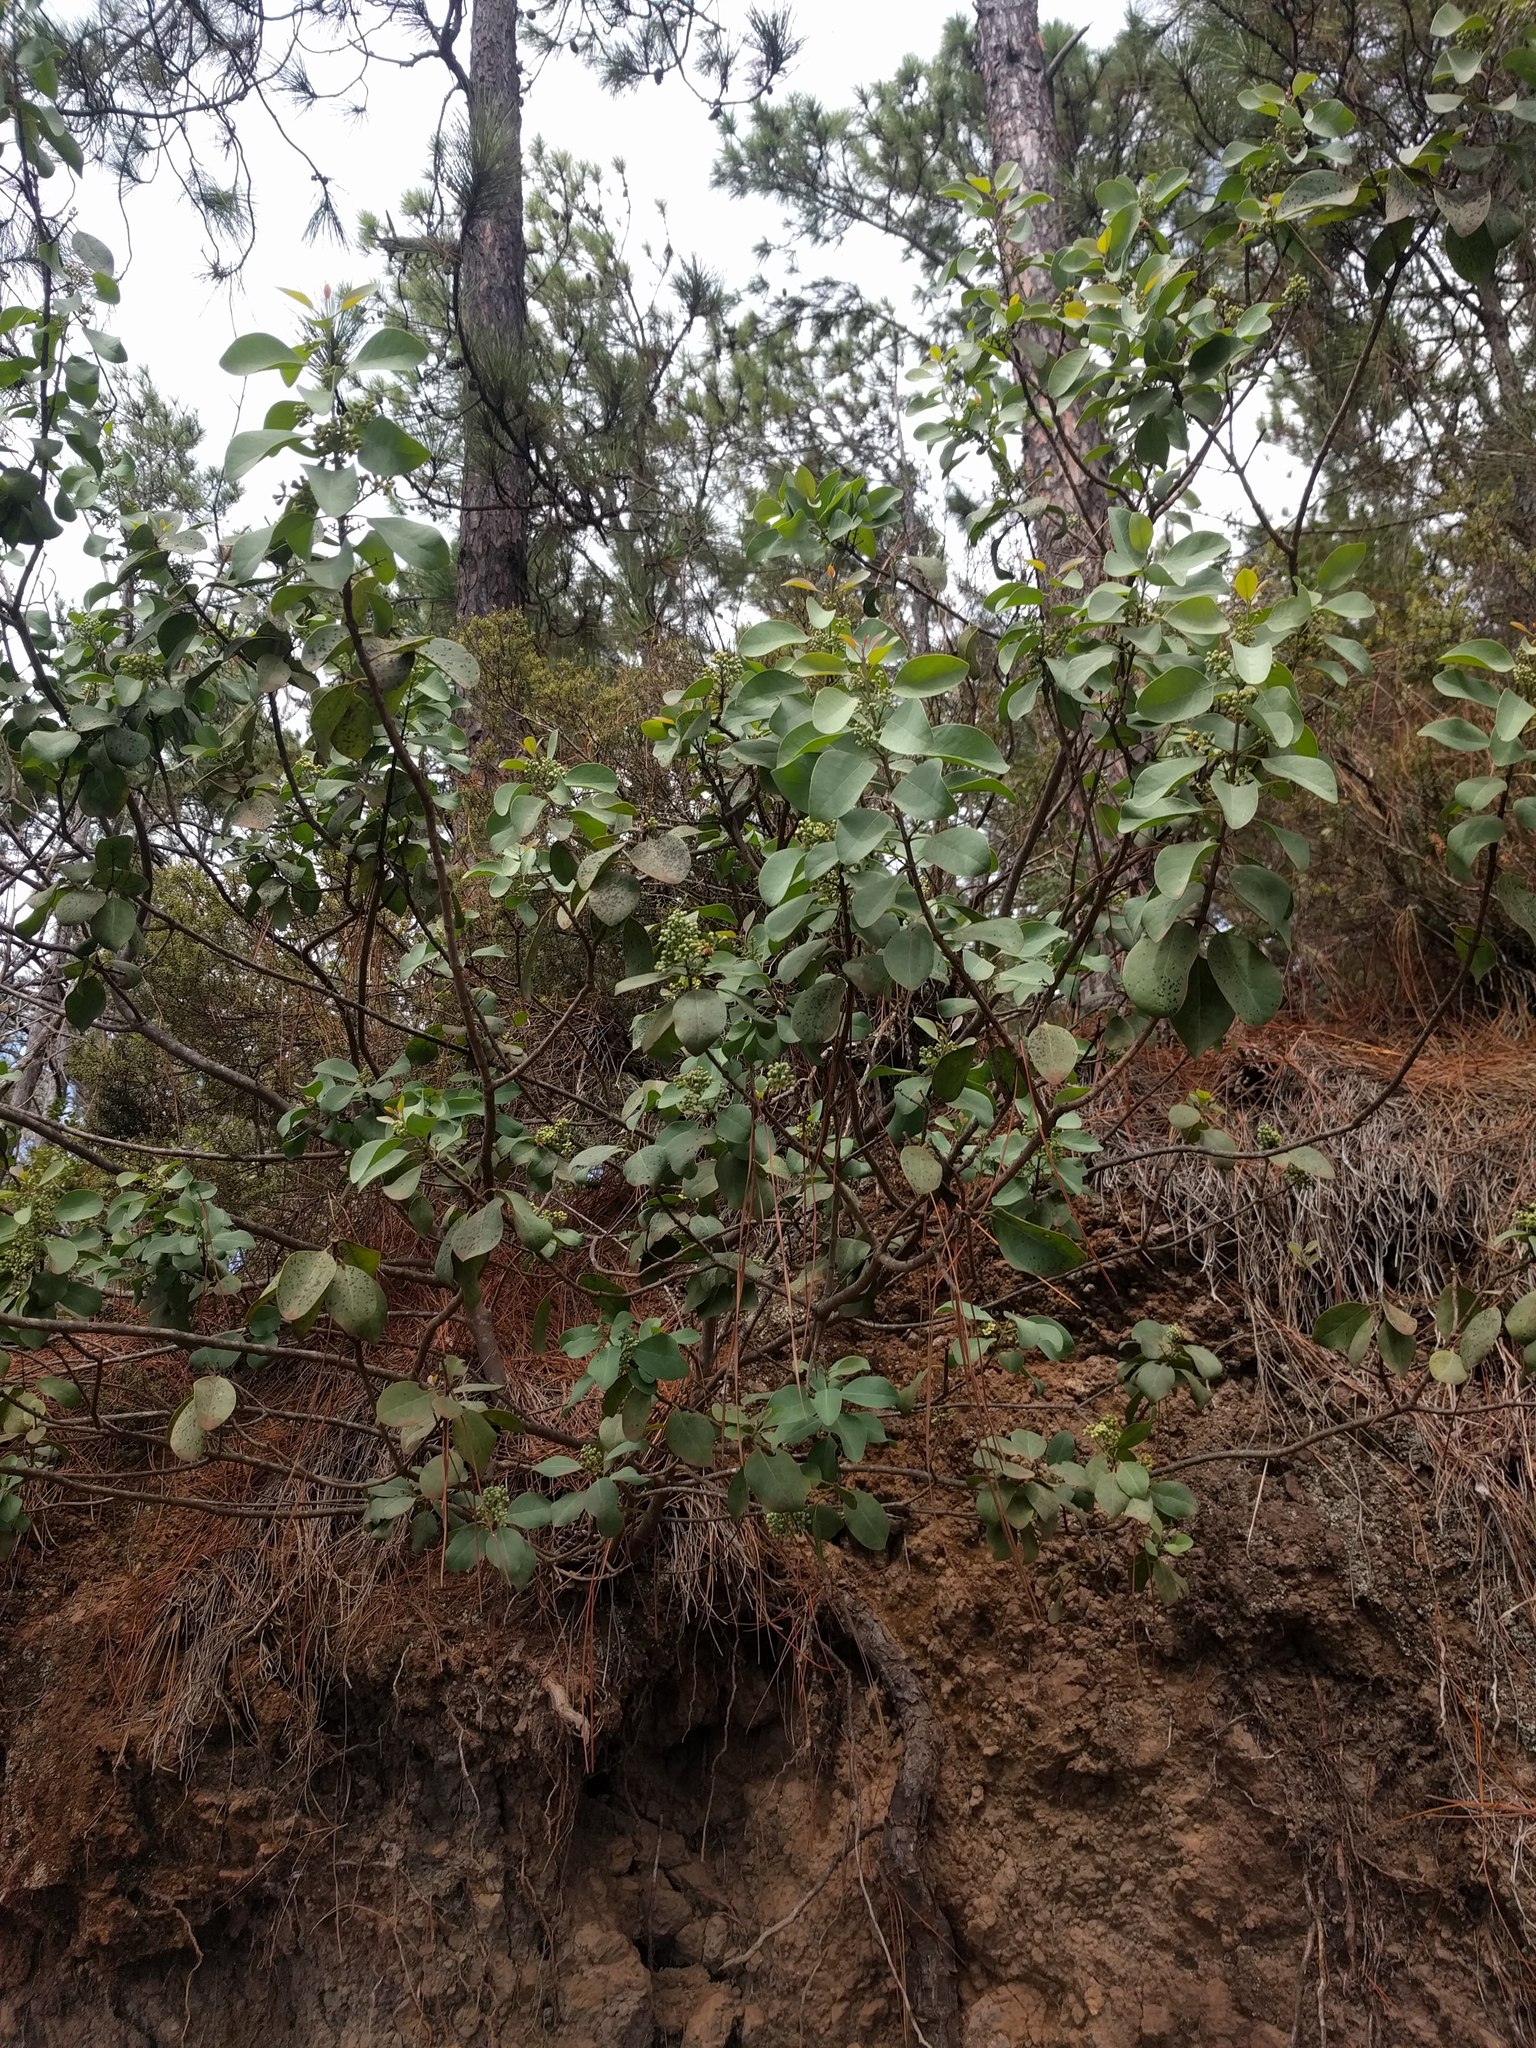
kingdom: Plantae
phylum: Tracheophyta
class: Magnoliopsida
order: Santalales
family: Santalaceae
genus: Santalum
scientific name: Santalum ellipticum
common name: Coast sandalwood
